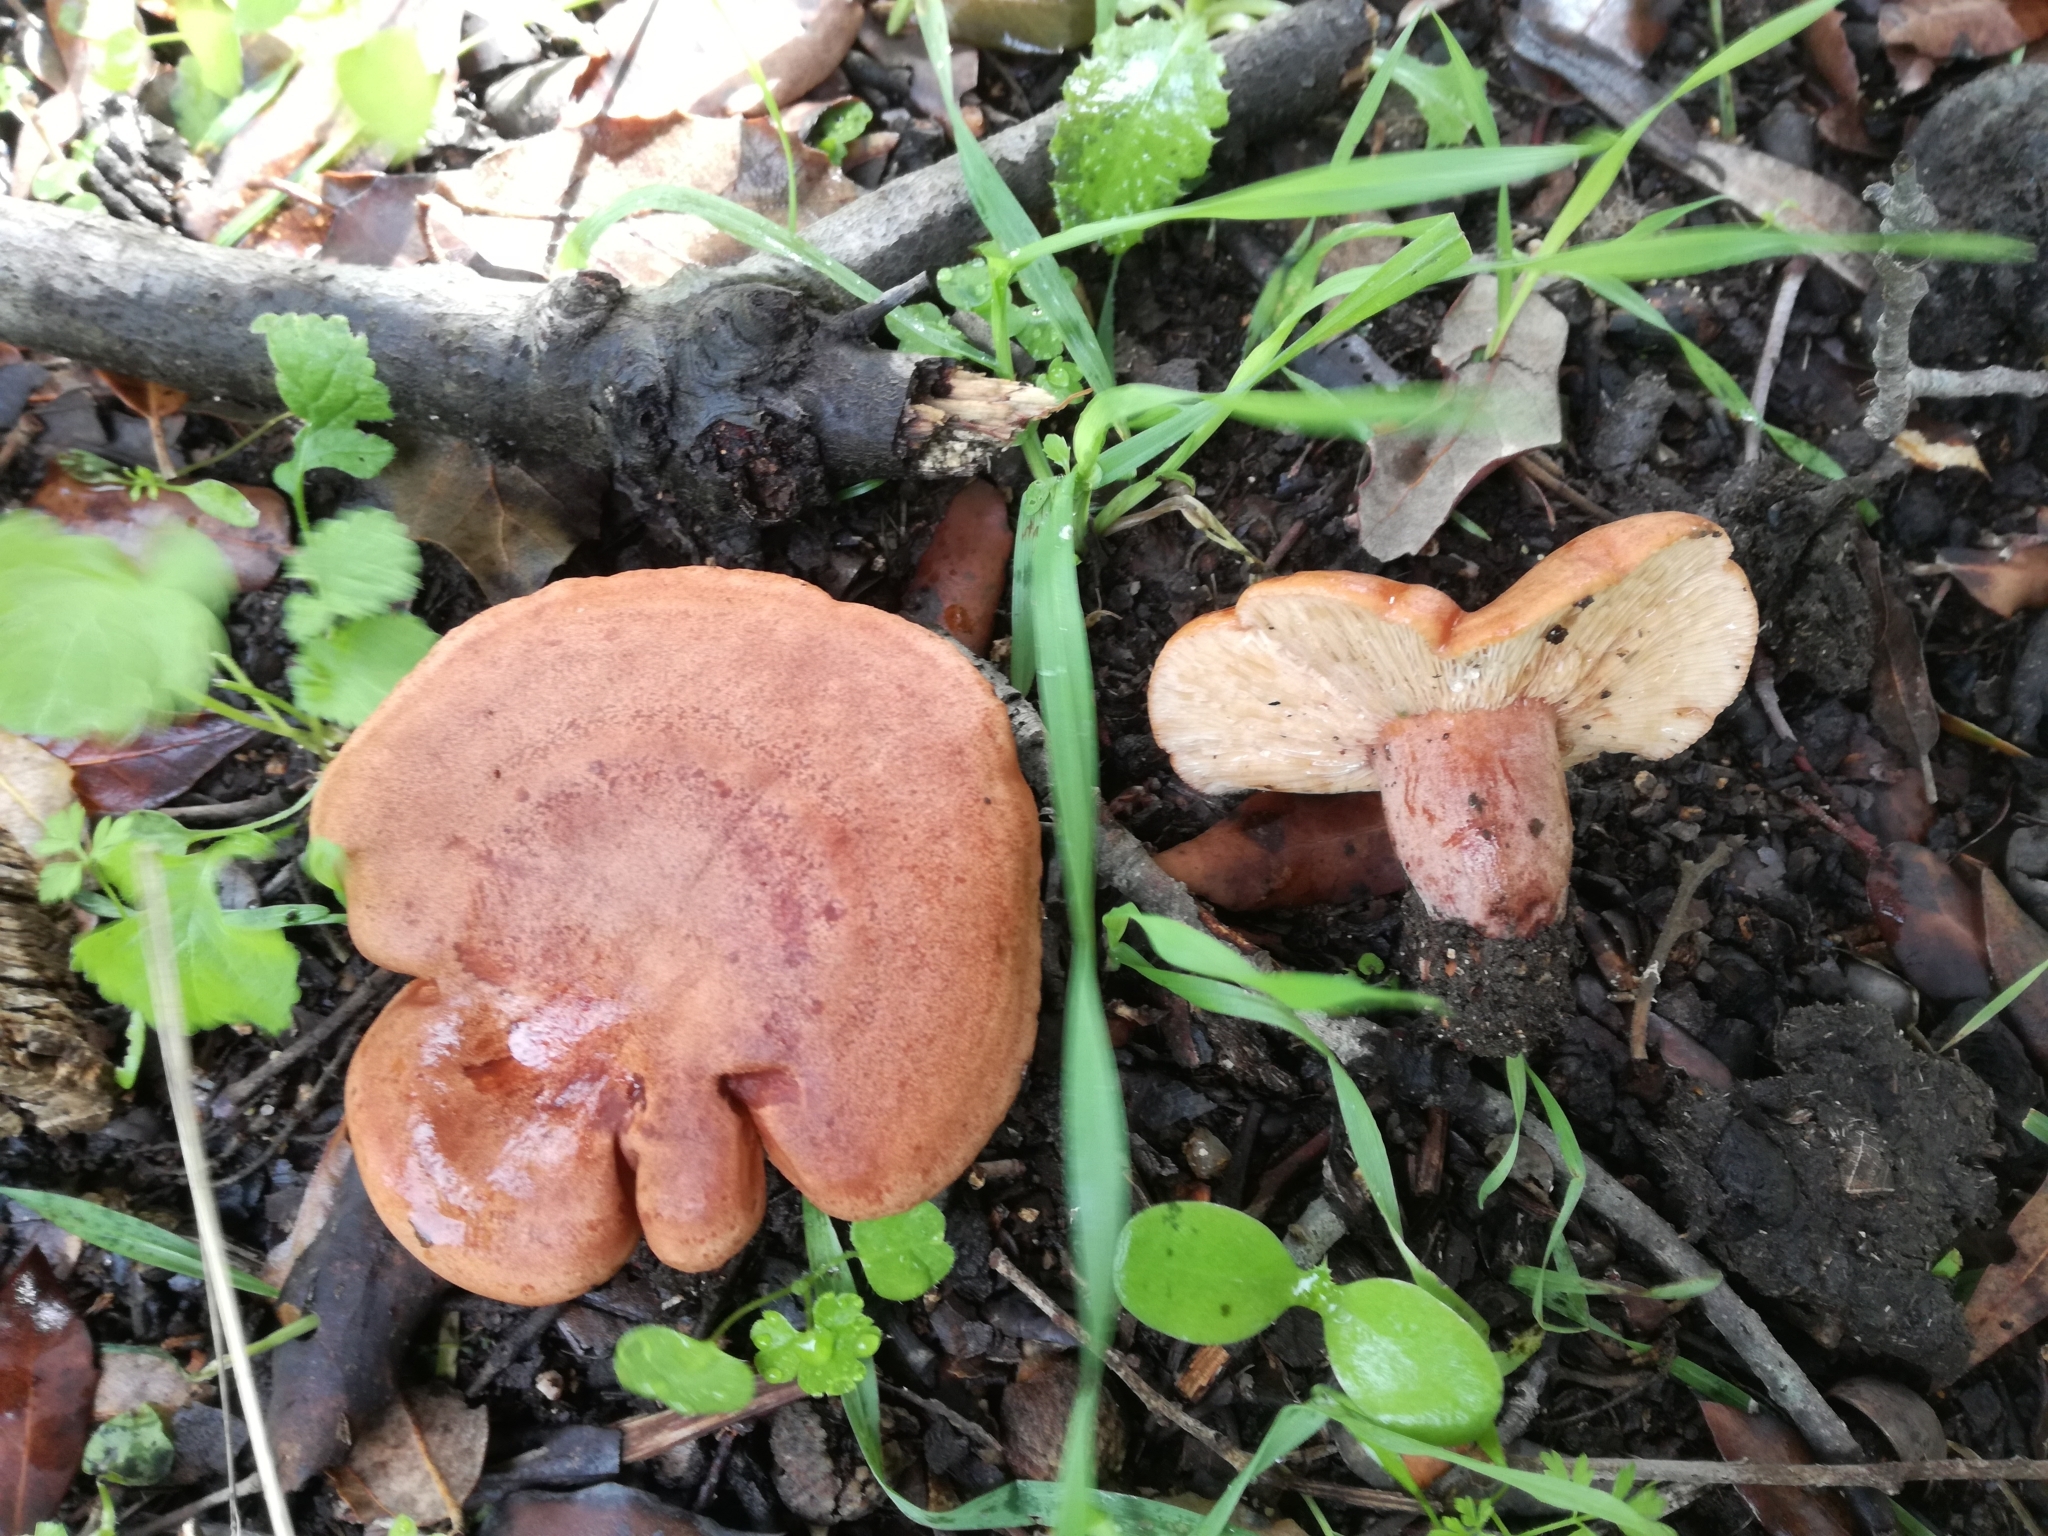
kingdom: Fungi
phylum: Basidiomycota
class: Agaricomycetes
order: Russulales
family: Russulaceae
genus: Lactarius
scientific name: Lactarius zugazae
